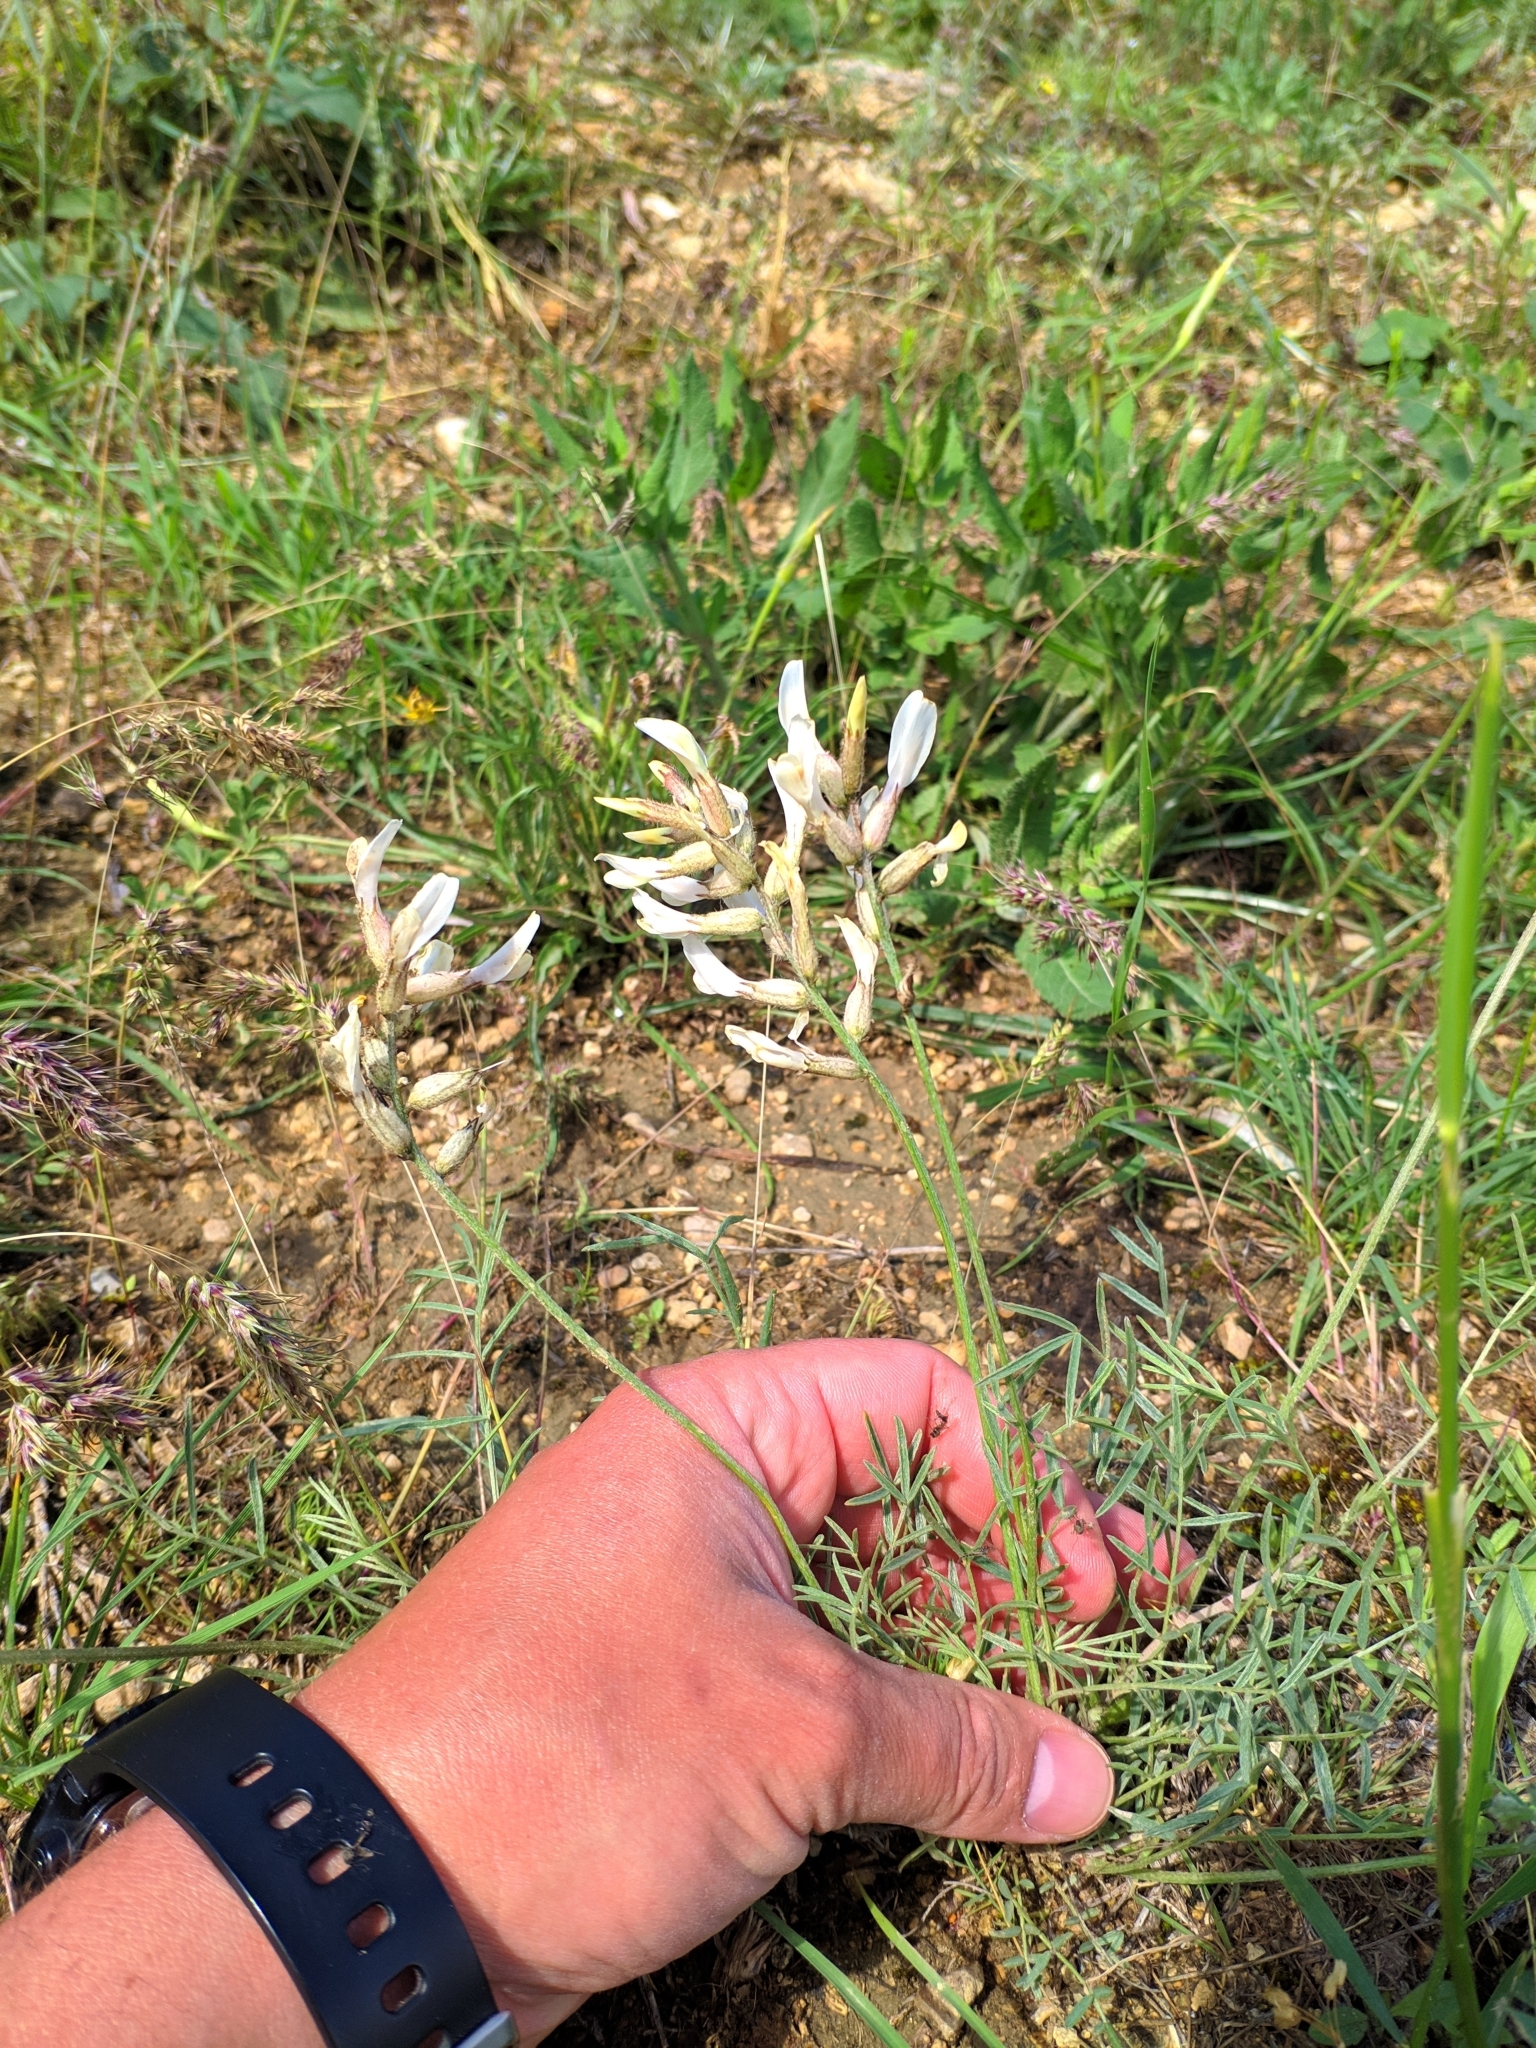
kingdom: Plantae
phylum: Tracheophyta
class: Magnoliopsida
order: Fabales
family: Fabaceae
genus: Astragalus
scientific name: Astragalus pallescens
